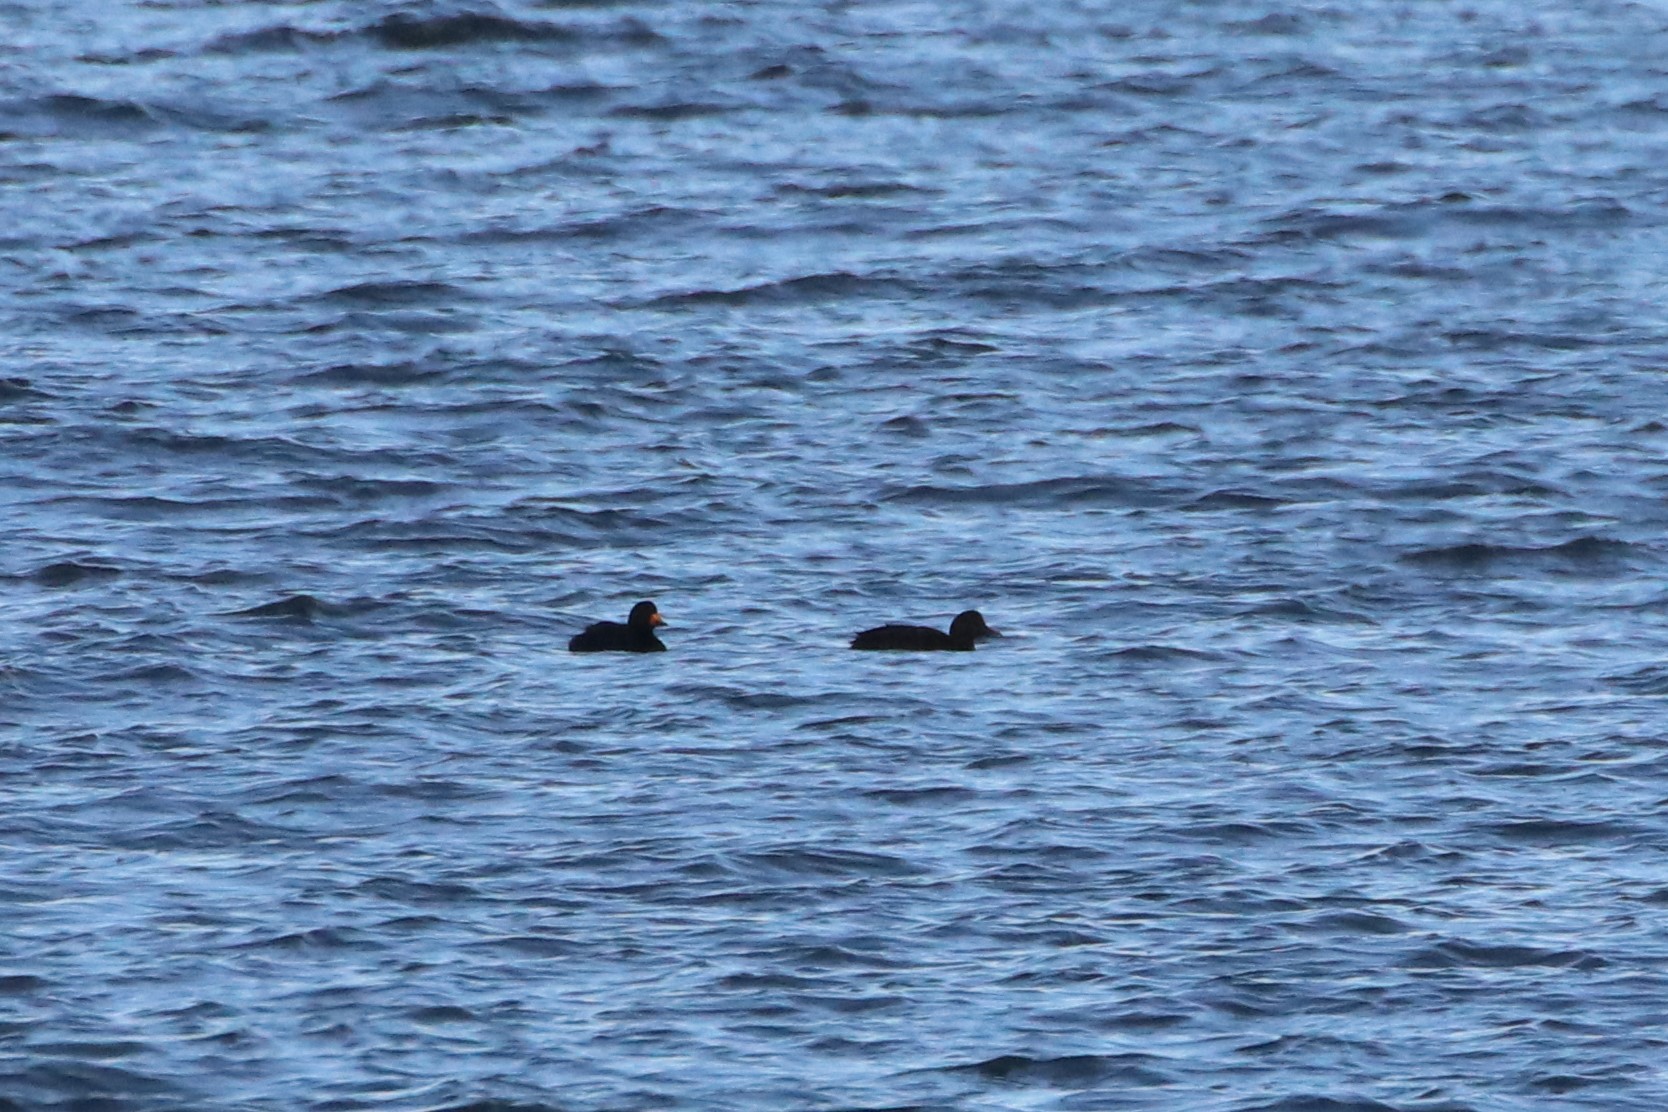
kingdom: Animalia
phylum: Chordata
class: Aves
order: Anseriformes
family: Anatidae
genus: Melanitta
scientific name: Melanitta americana
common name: Black scoter
